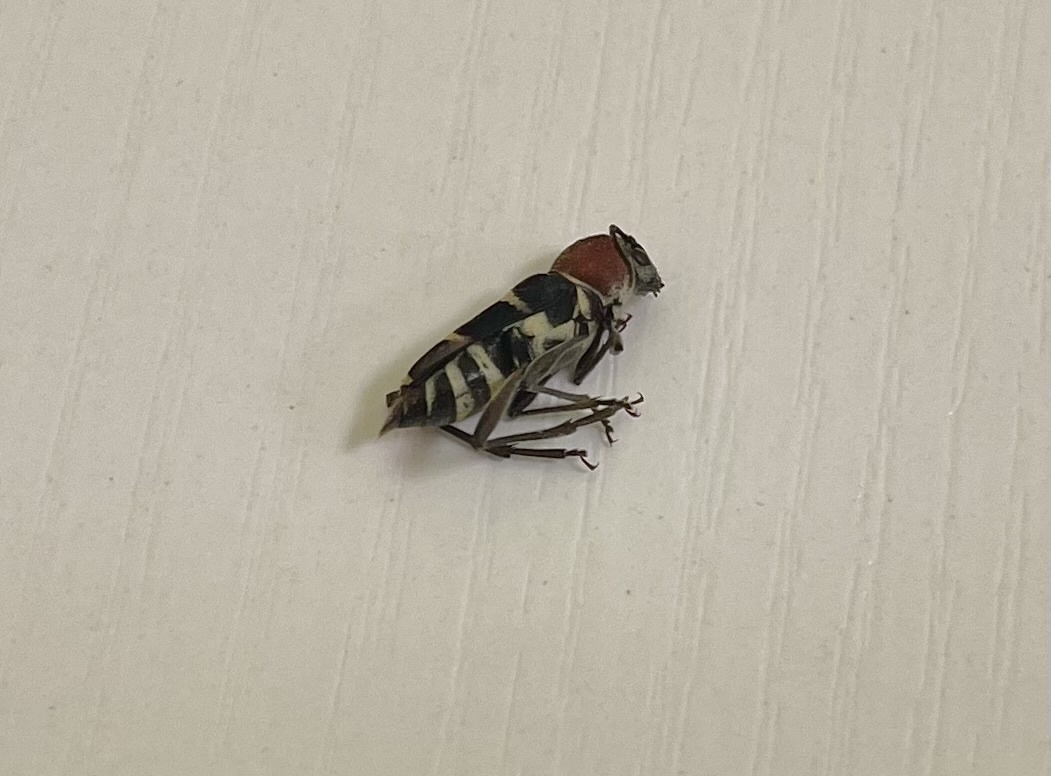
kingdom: Animalia
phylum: Arthropoda
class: Insecta
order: Coleoptera
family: Cerambycidae
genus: Xylotrechus
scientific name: Xylotrechus rufilius
